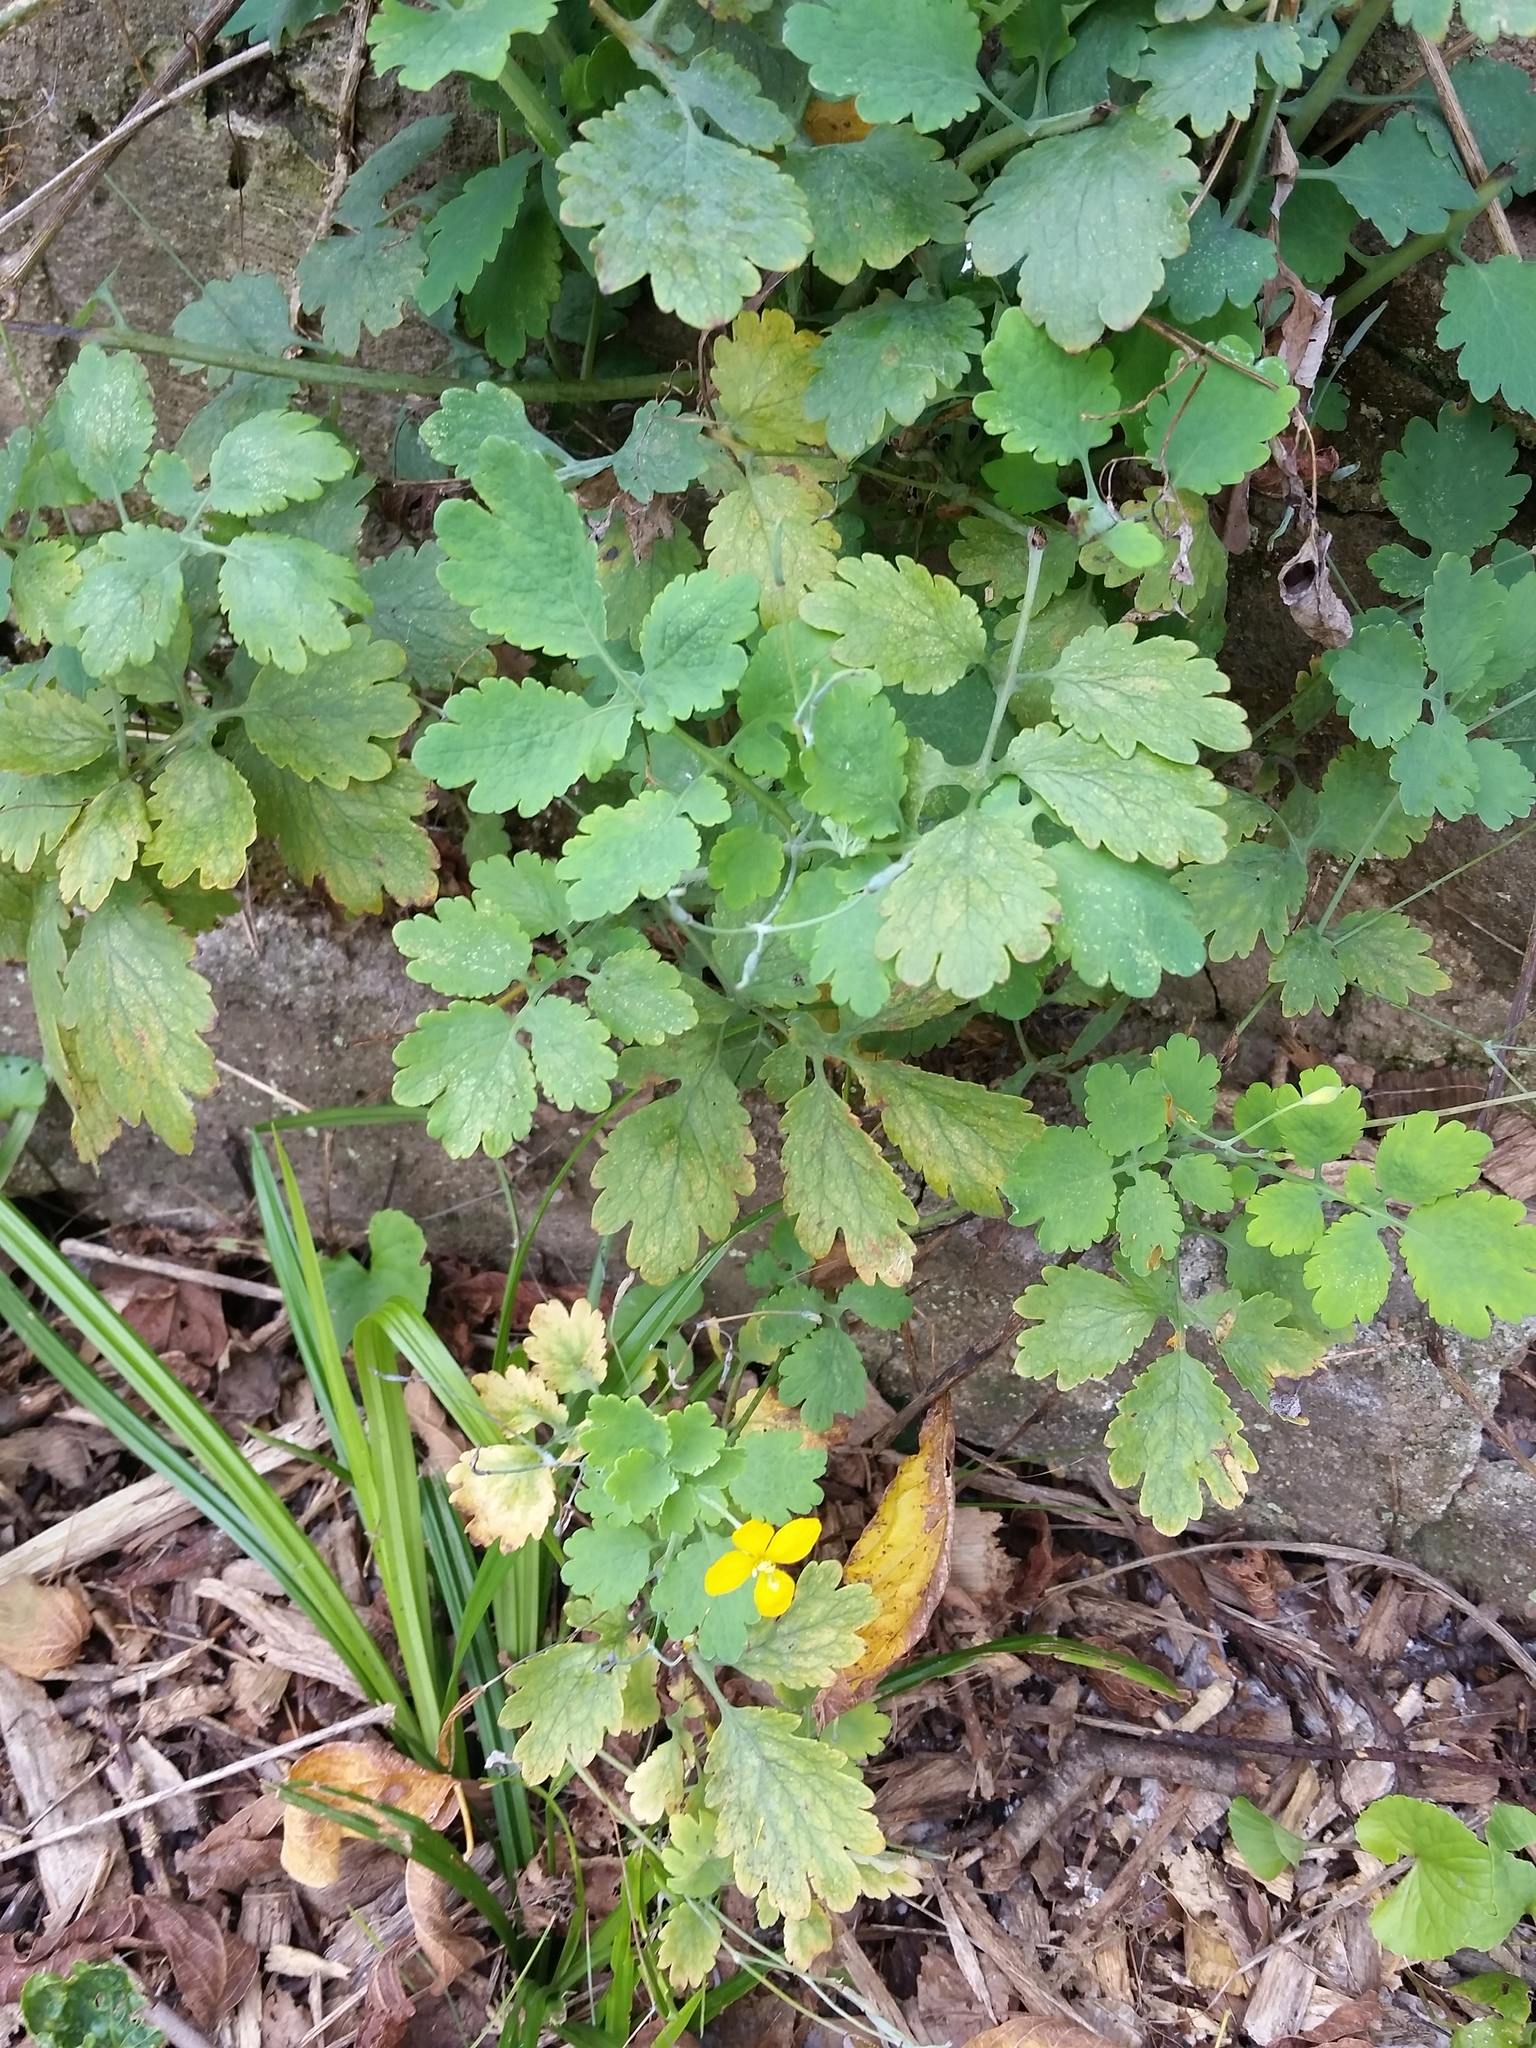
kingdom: Plantae
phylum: Tracheophyta
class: Magnoliopsida
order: Ranunculales
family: Papaveraceae
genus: Chelidonium
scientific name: Chelidonium majus
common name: Greater celandine
